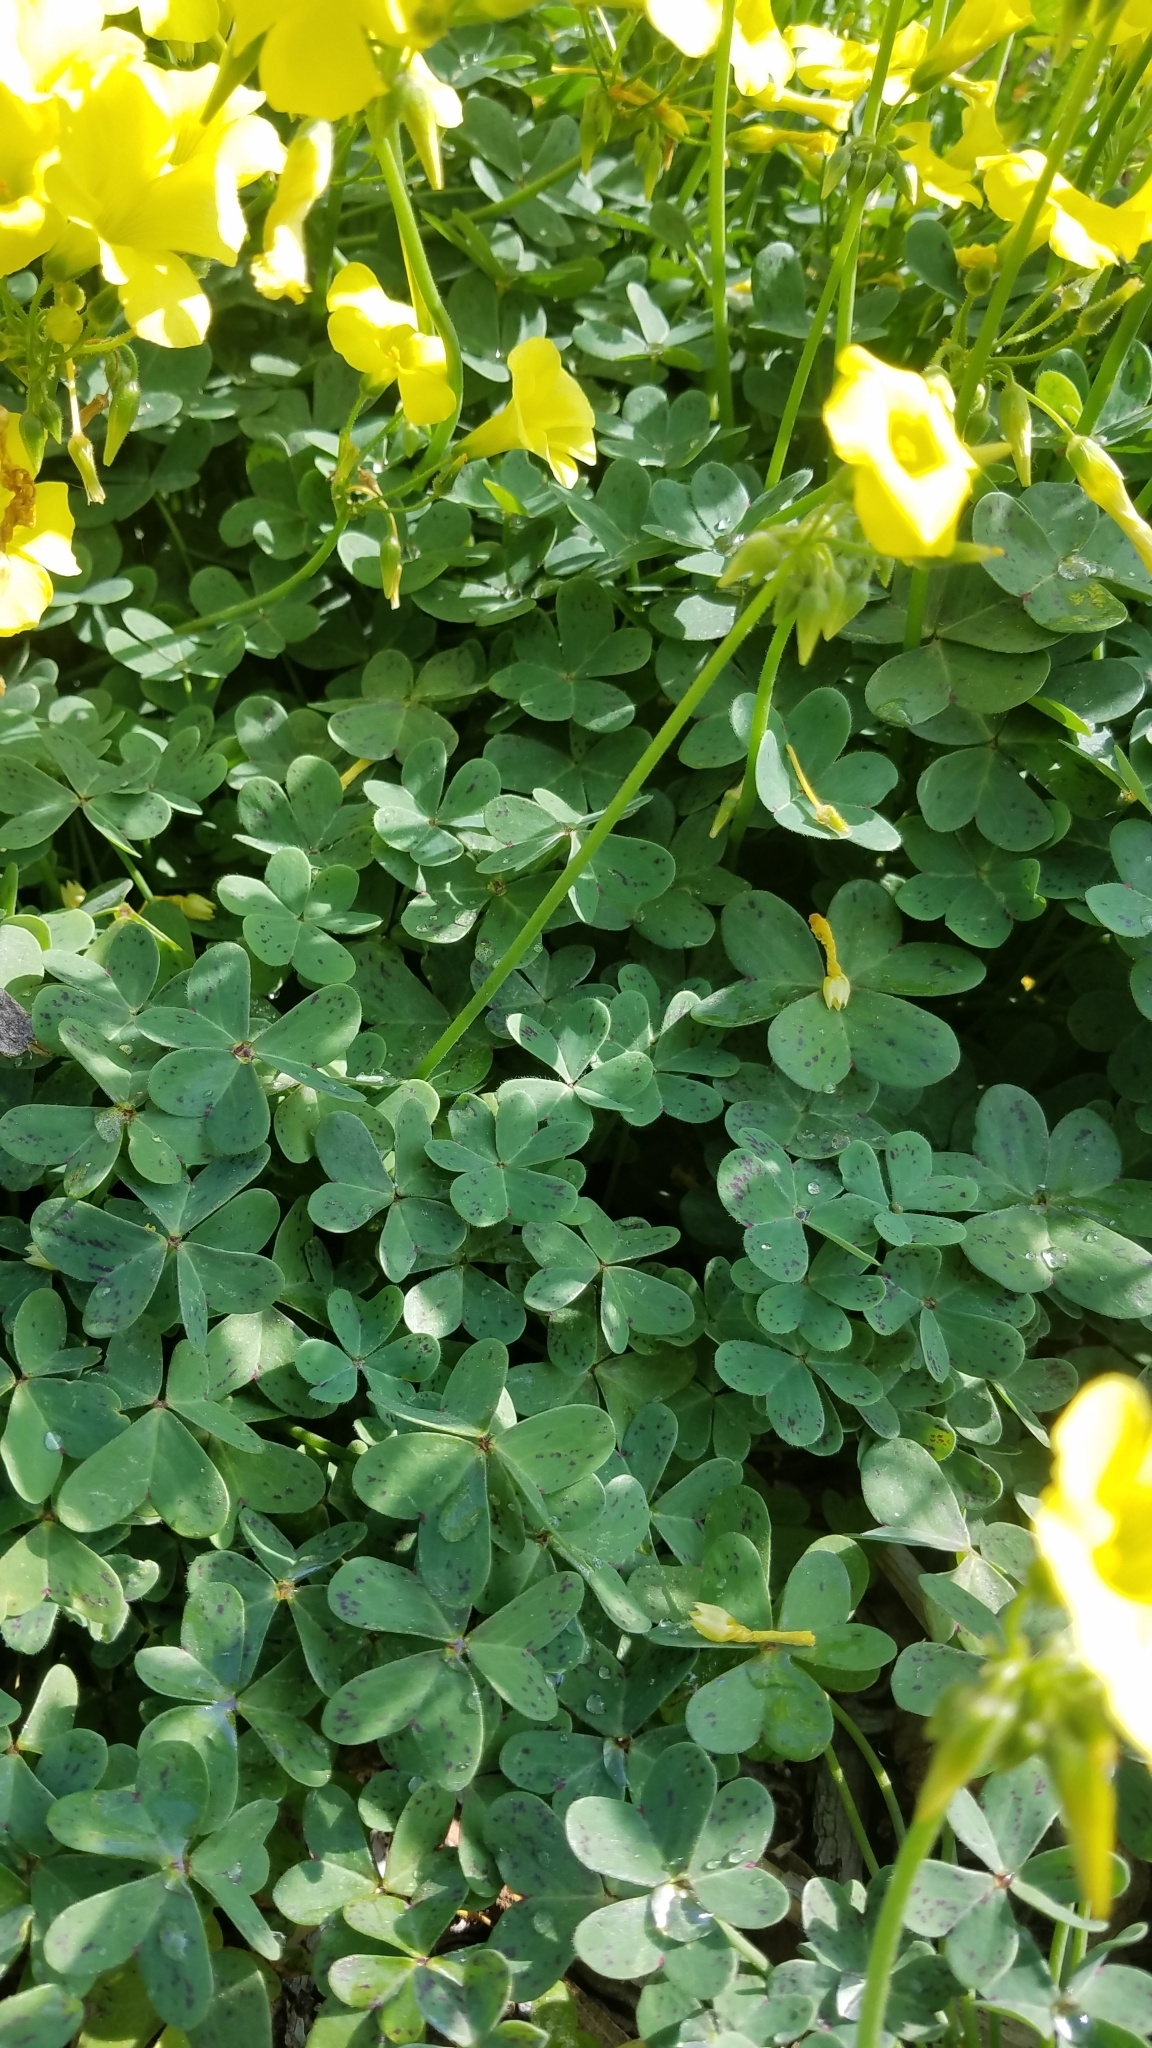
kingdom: Plantae
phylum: Tracheophyta
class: Magnoliopsida
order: Oxalidales
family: Oxalidaceae
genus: Oxalis
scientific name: Oxalis pes-caprae
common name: Bermuda-buttercup
